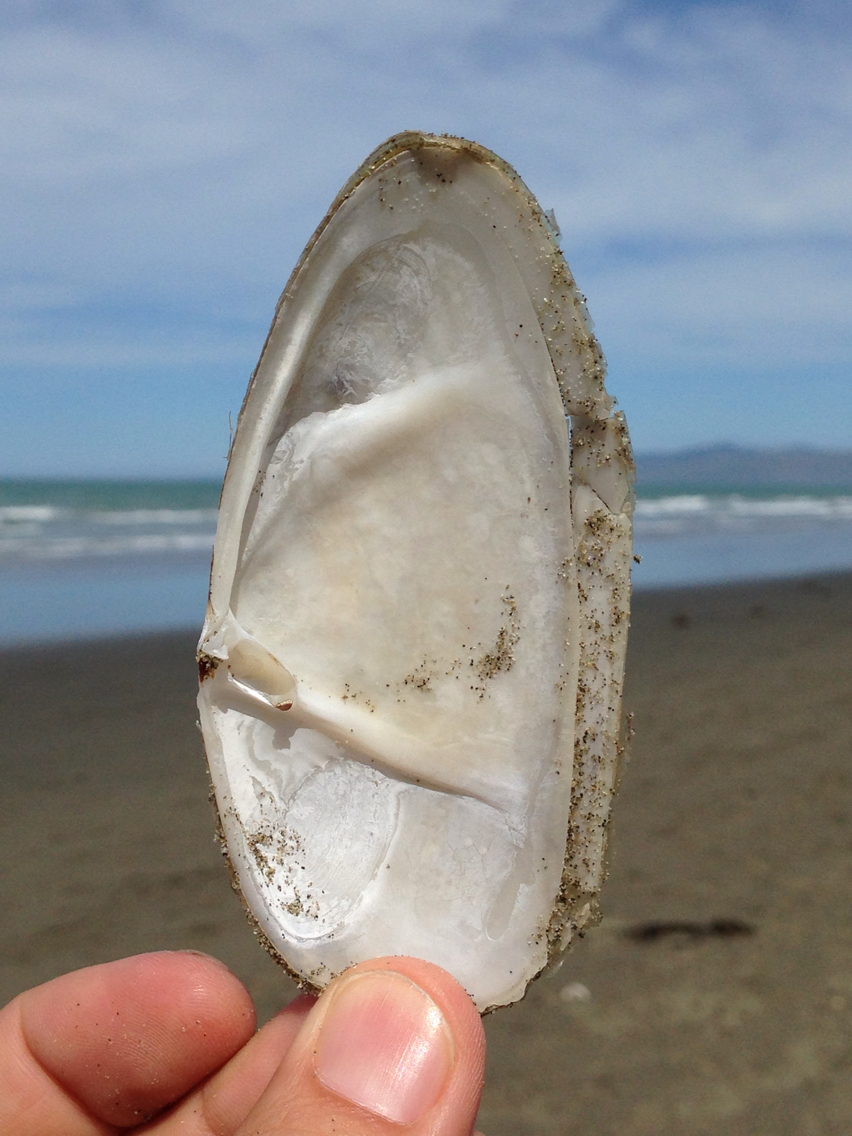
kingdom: Animalia
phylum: Mollusca
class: Bivalvia
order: Venerida
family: Mactridae
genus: Resania
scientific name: Resania lanceolata
